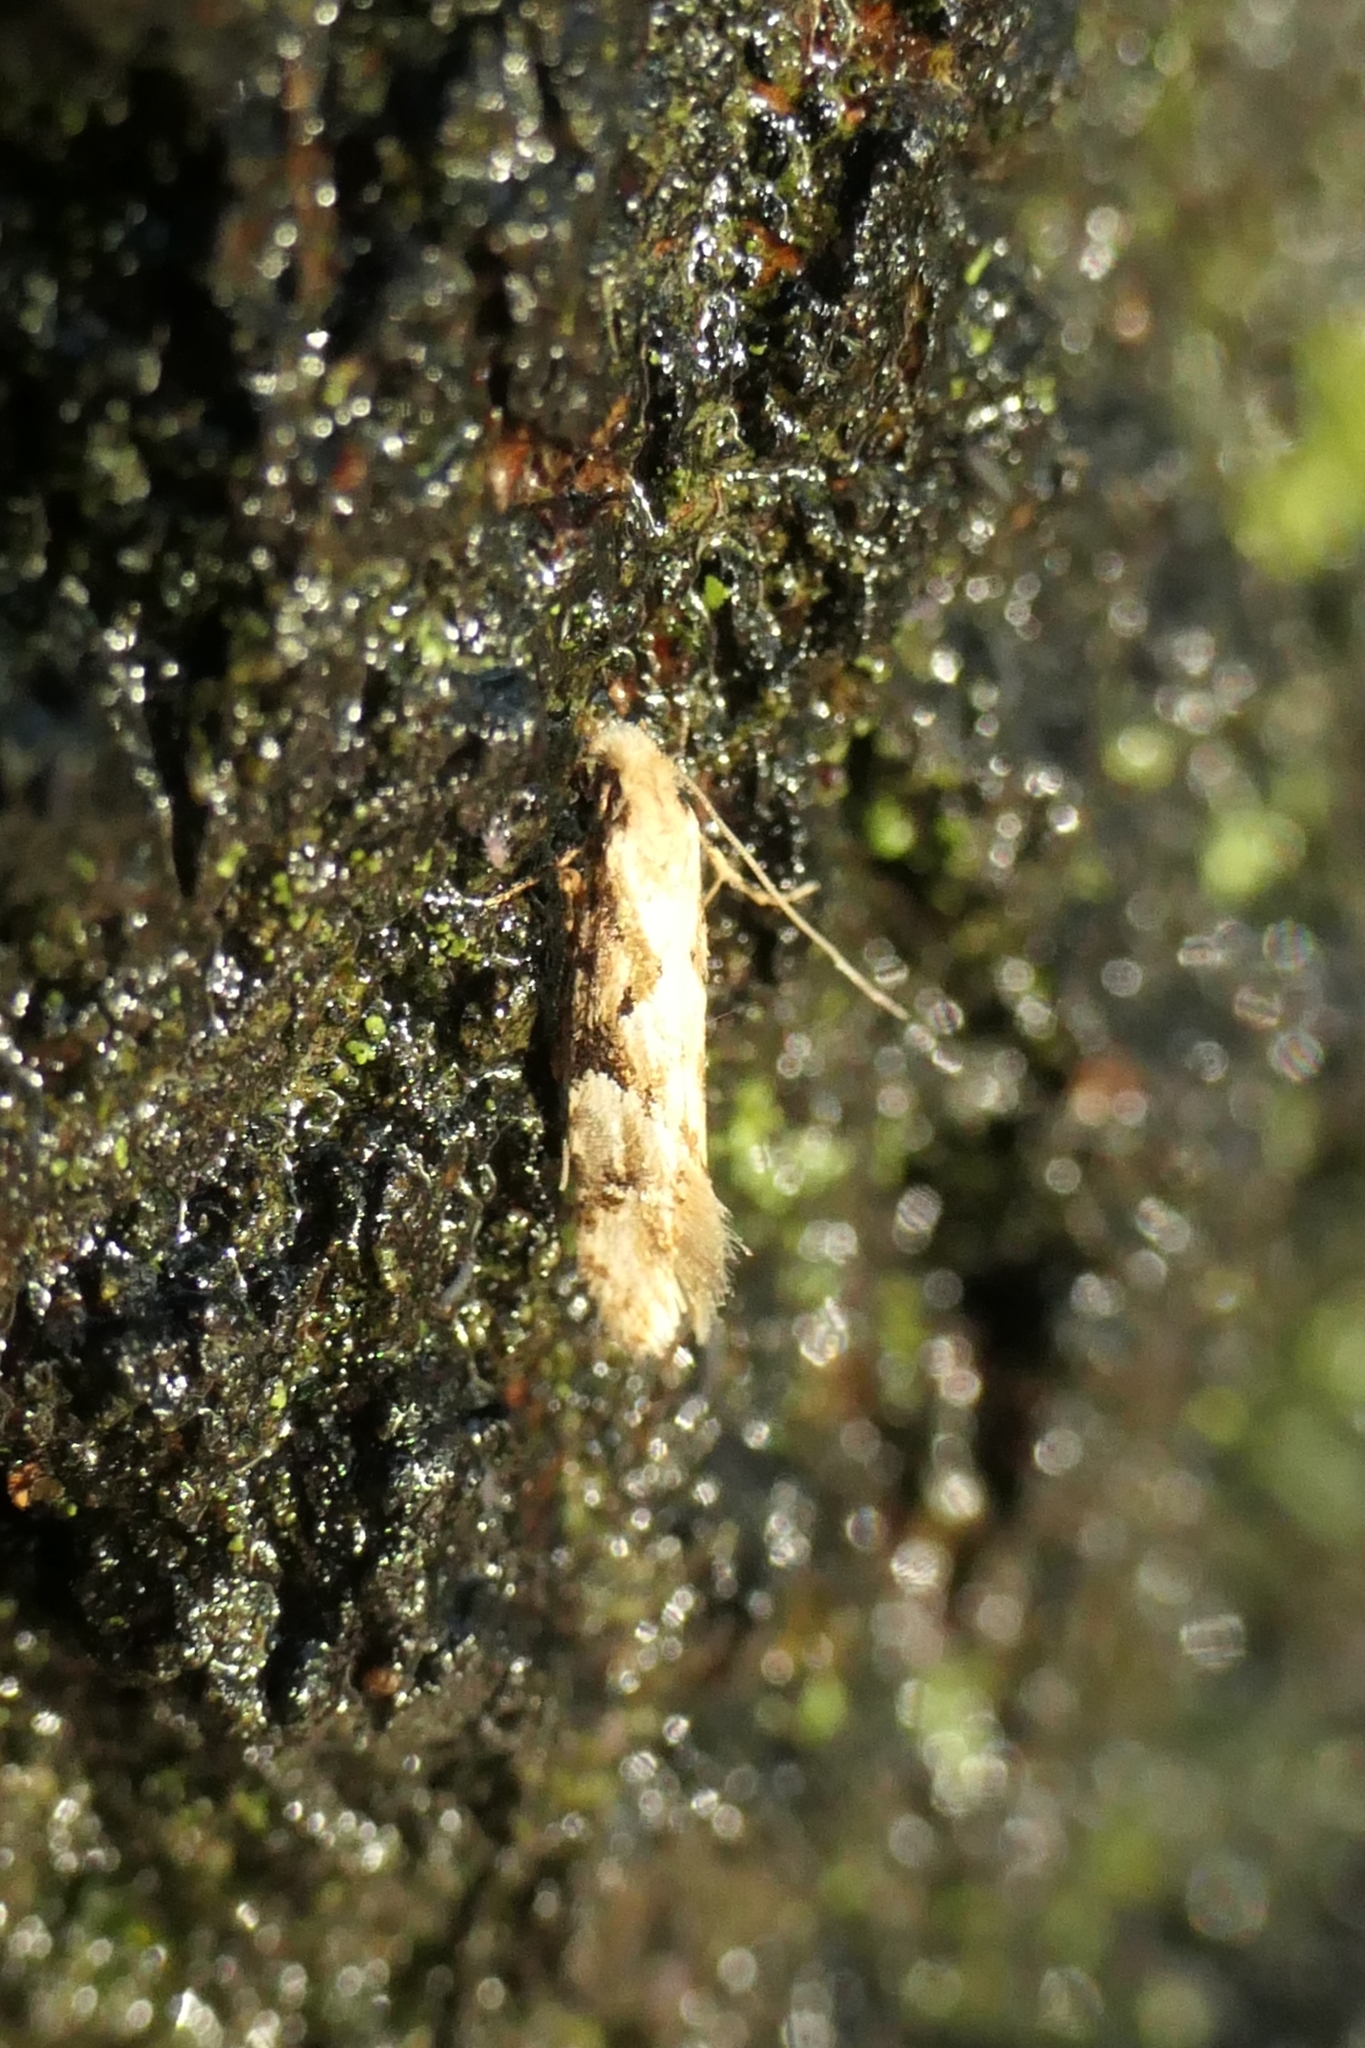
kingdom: Animalia
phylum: Arthropoda
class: Insecta
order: Lepidoptera
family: Tineidae
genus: Crypsitricha
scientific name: Crypsitricha mesotypa
